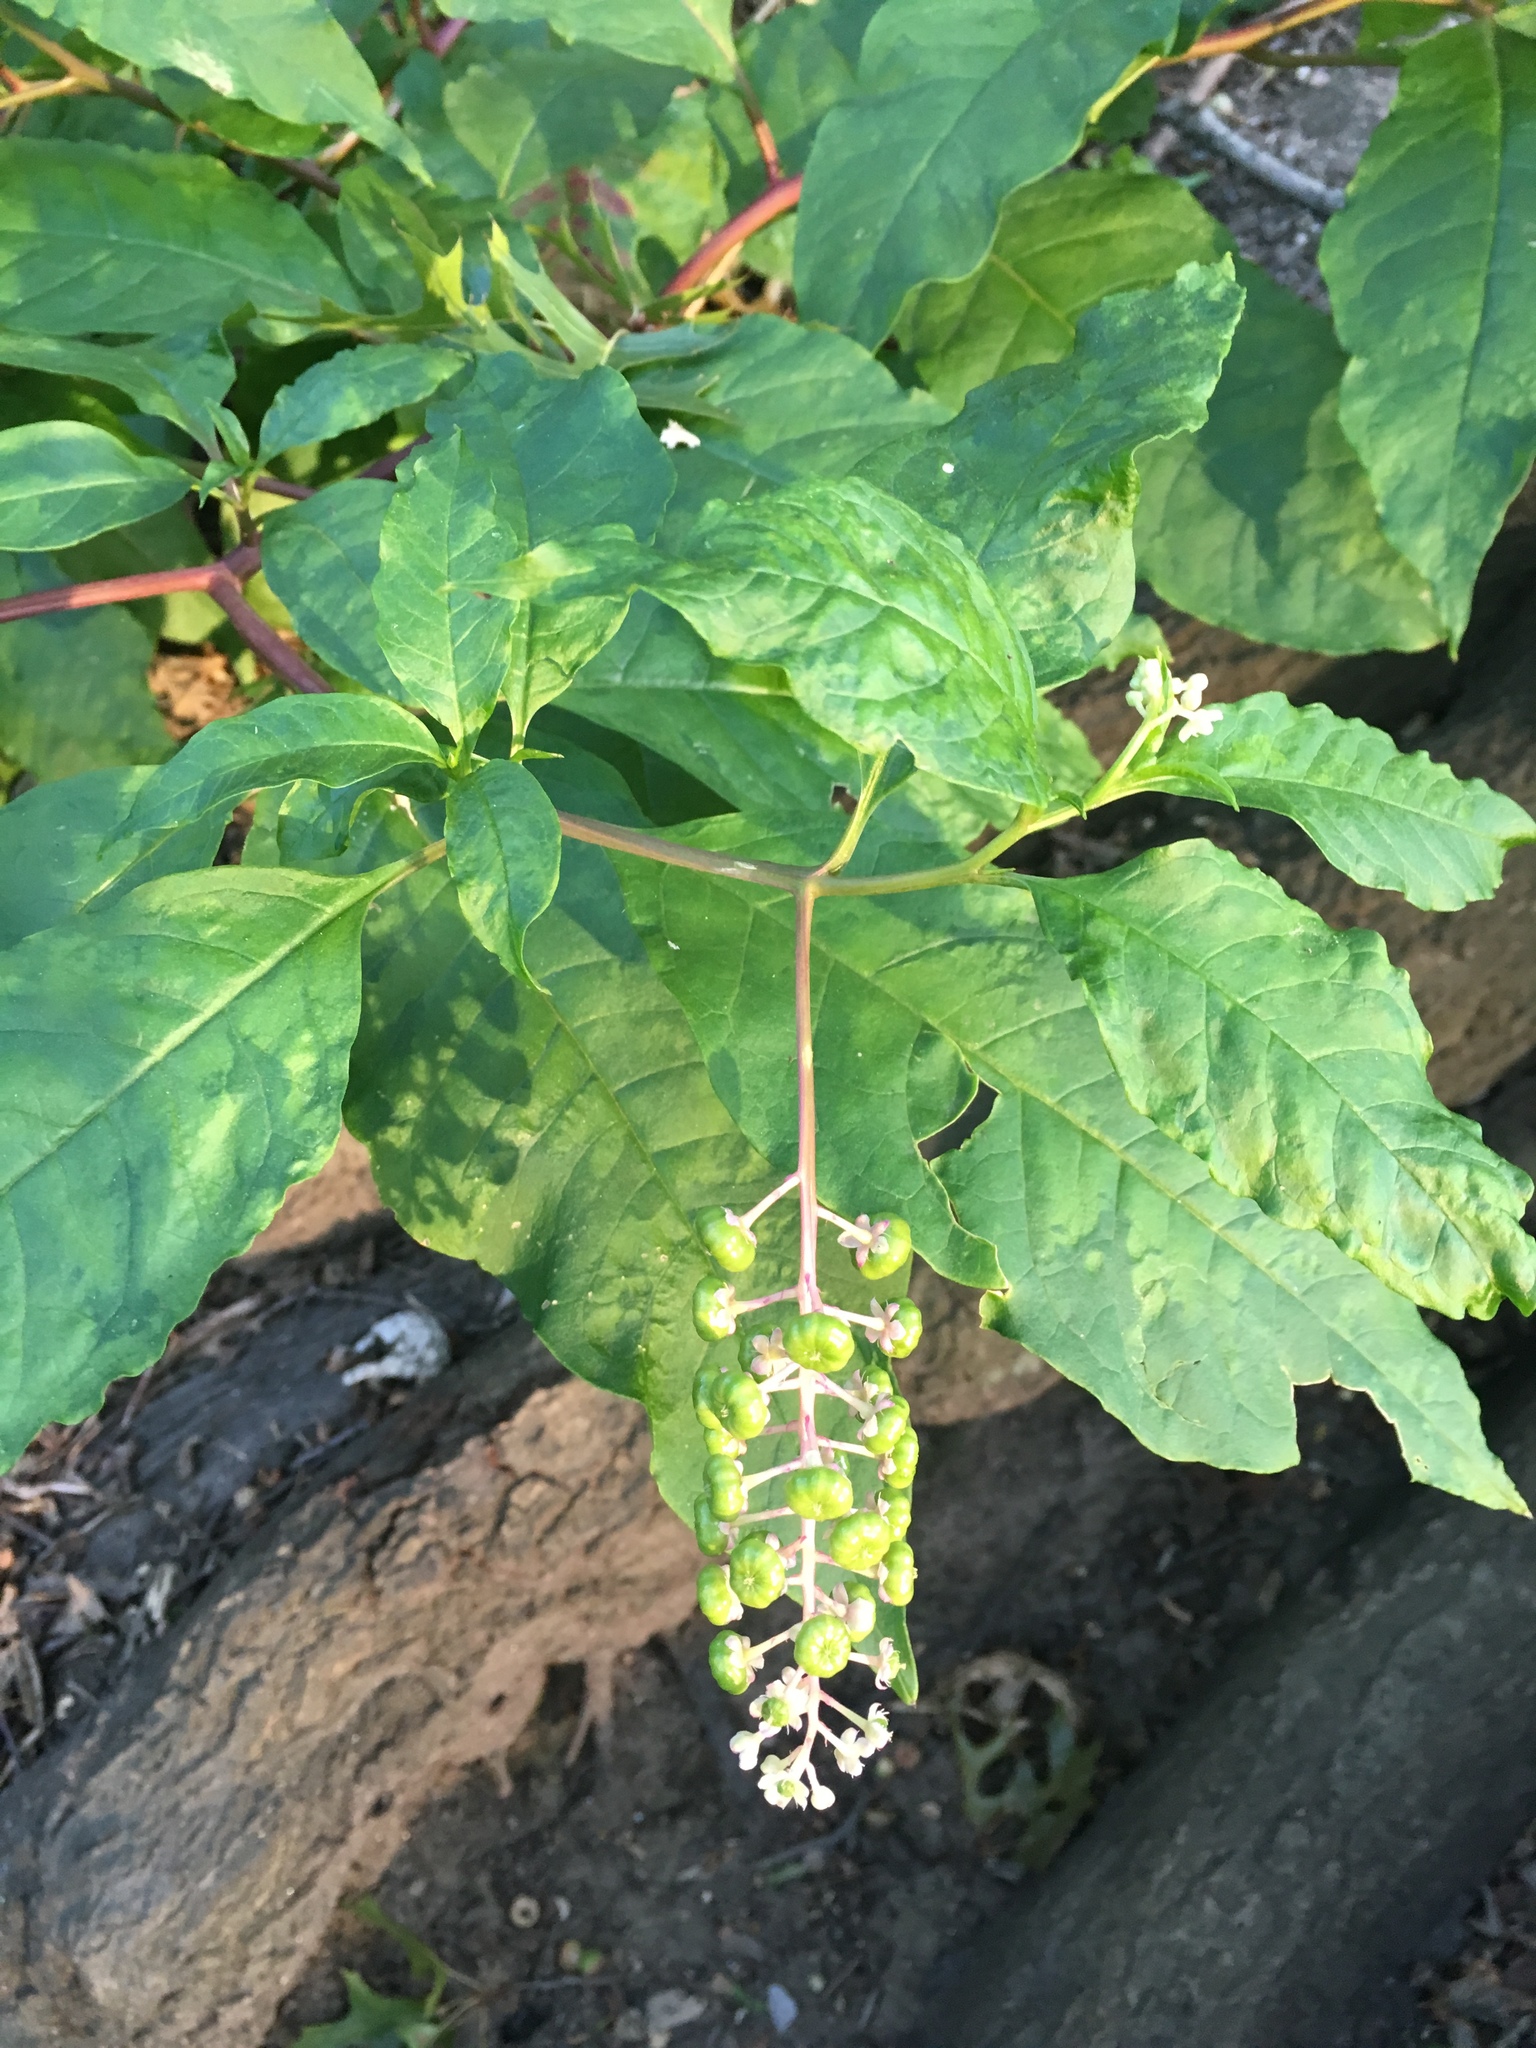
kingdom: Plantae
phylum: Tracheophyta
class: Magnoliopsida
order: Caryophyllales
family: Phytolaccaceae
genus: Phytolacca
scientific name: Phytolacca americana
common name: American pokeweed
